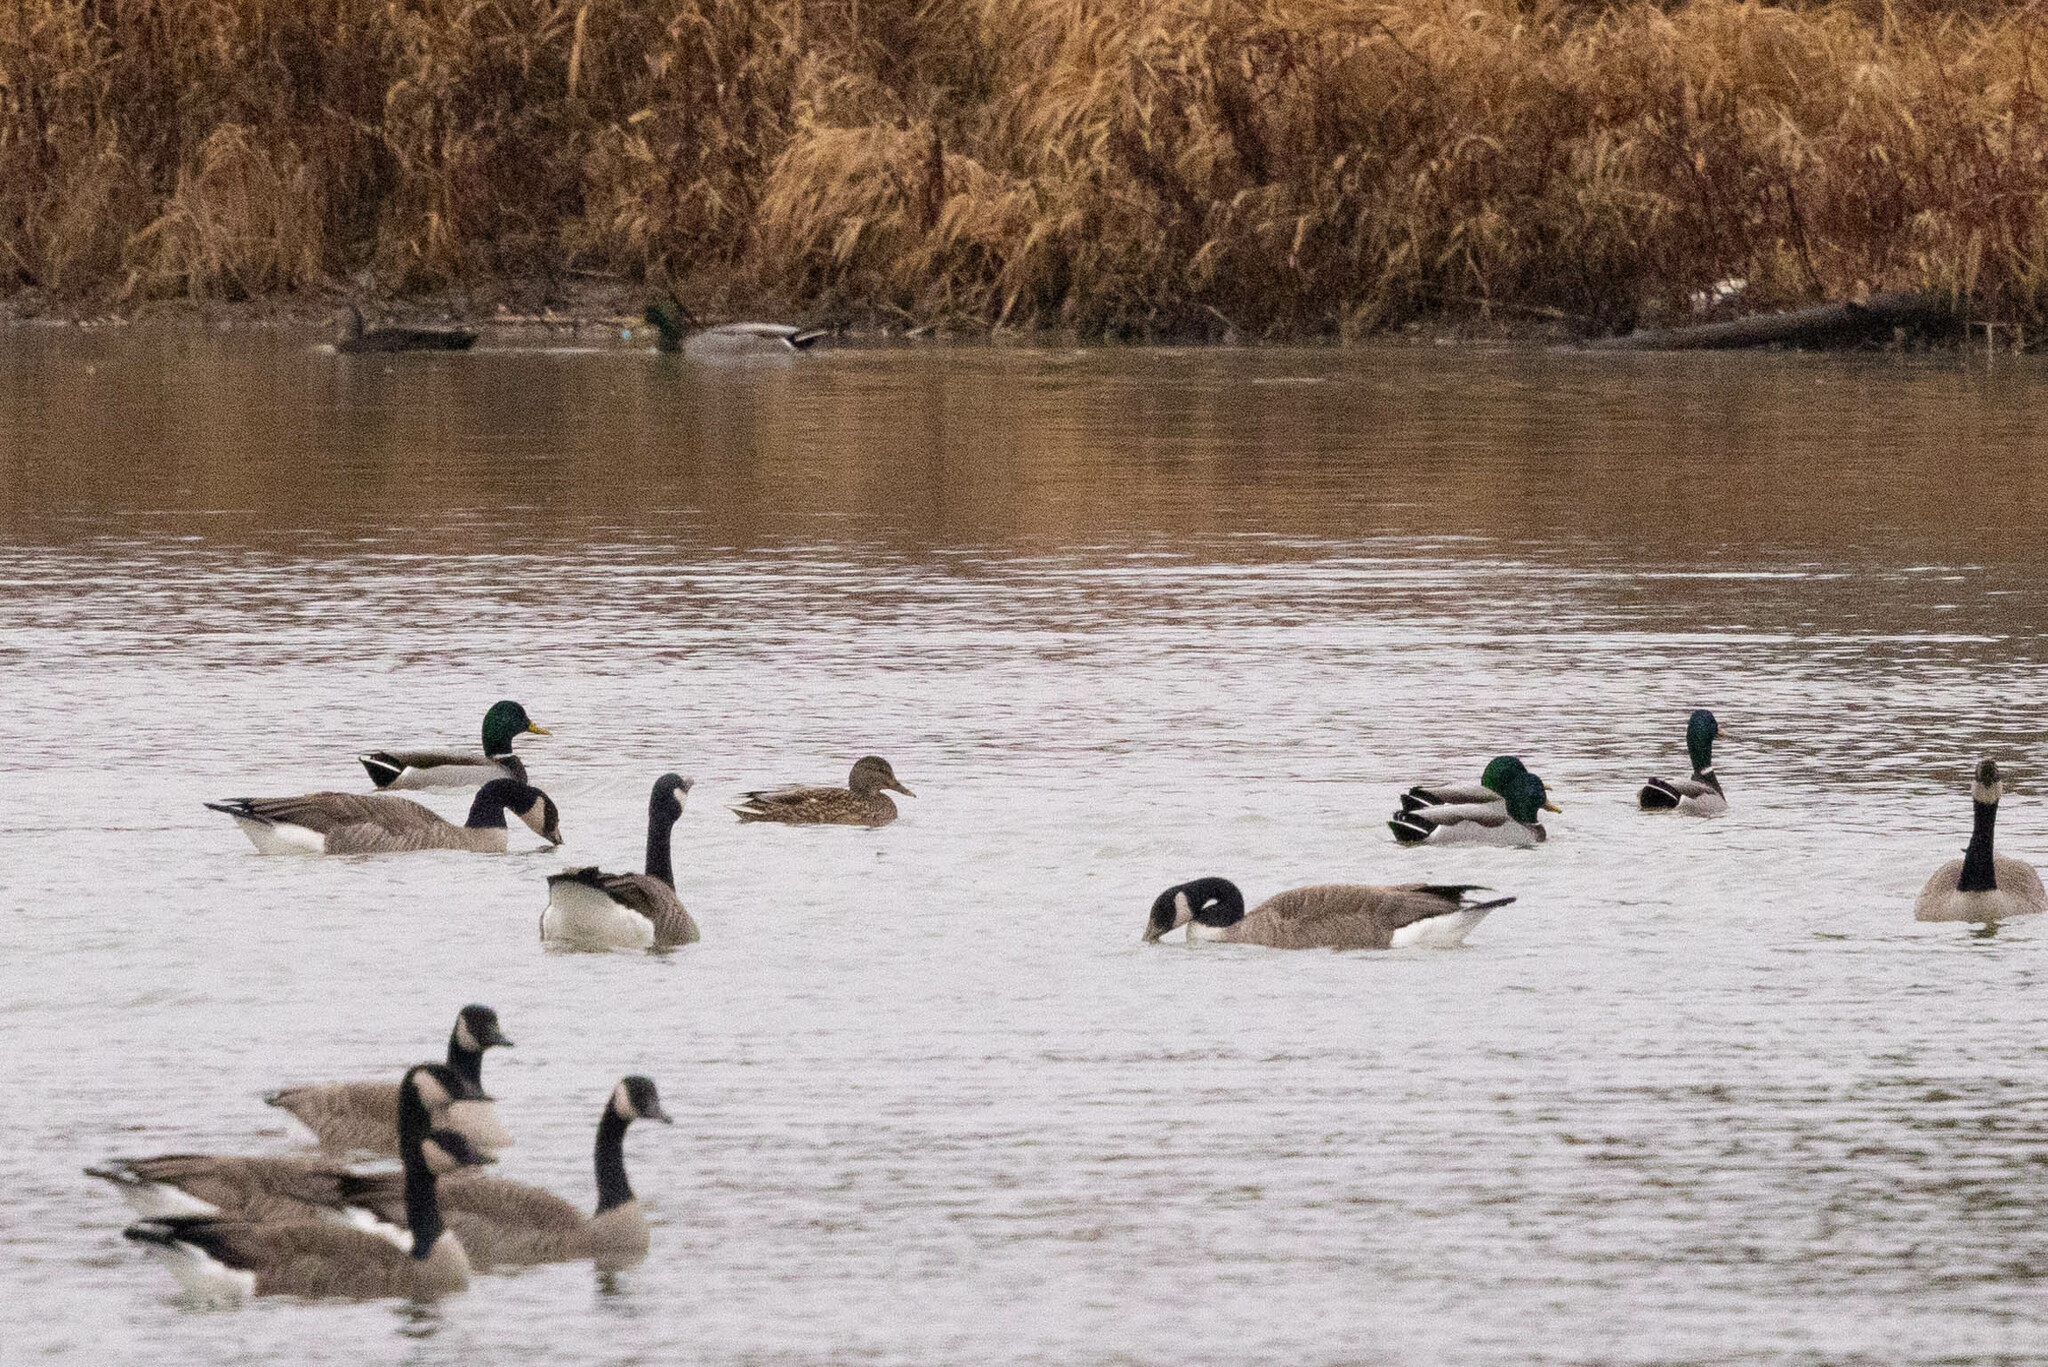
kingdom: Animalia
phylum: Chordata
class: Aves
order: Anseriformes
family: Anatidae
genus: Anas
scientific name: Anas platyrhynchos
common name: Mallard
